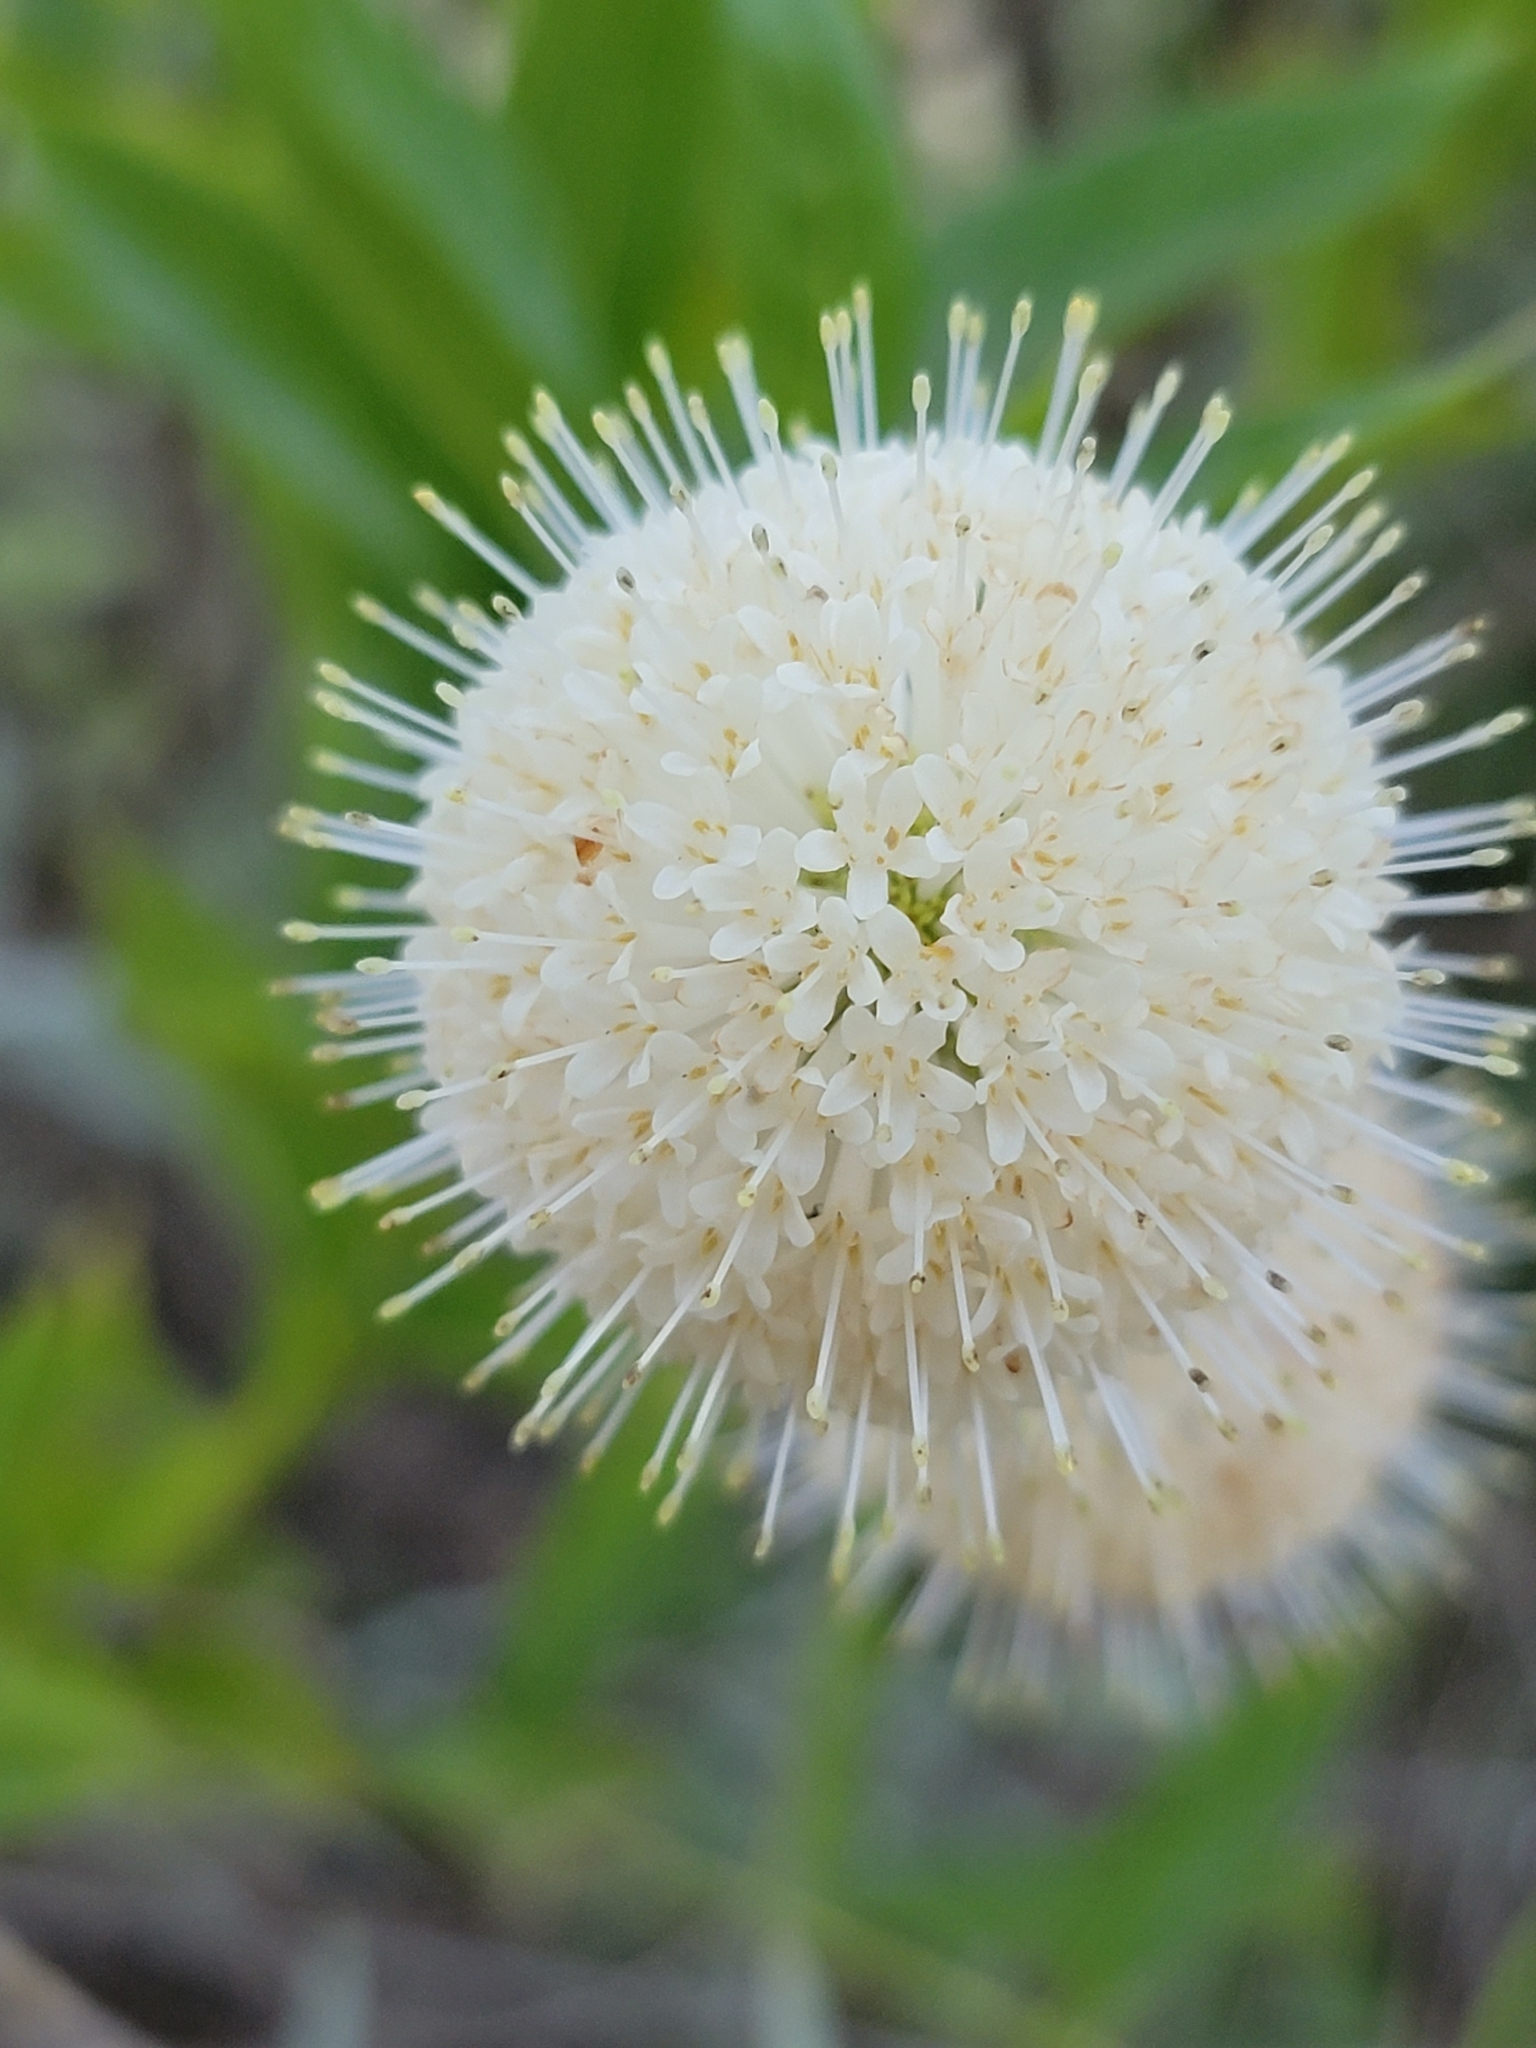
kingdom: Plantae
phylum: Tracheophyta
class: Magnoliopsida
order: Gentianales
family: Rubiaceae
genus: Cephalanthus
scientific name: Cephalanthus occidentalis
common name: Button-willow
